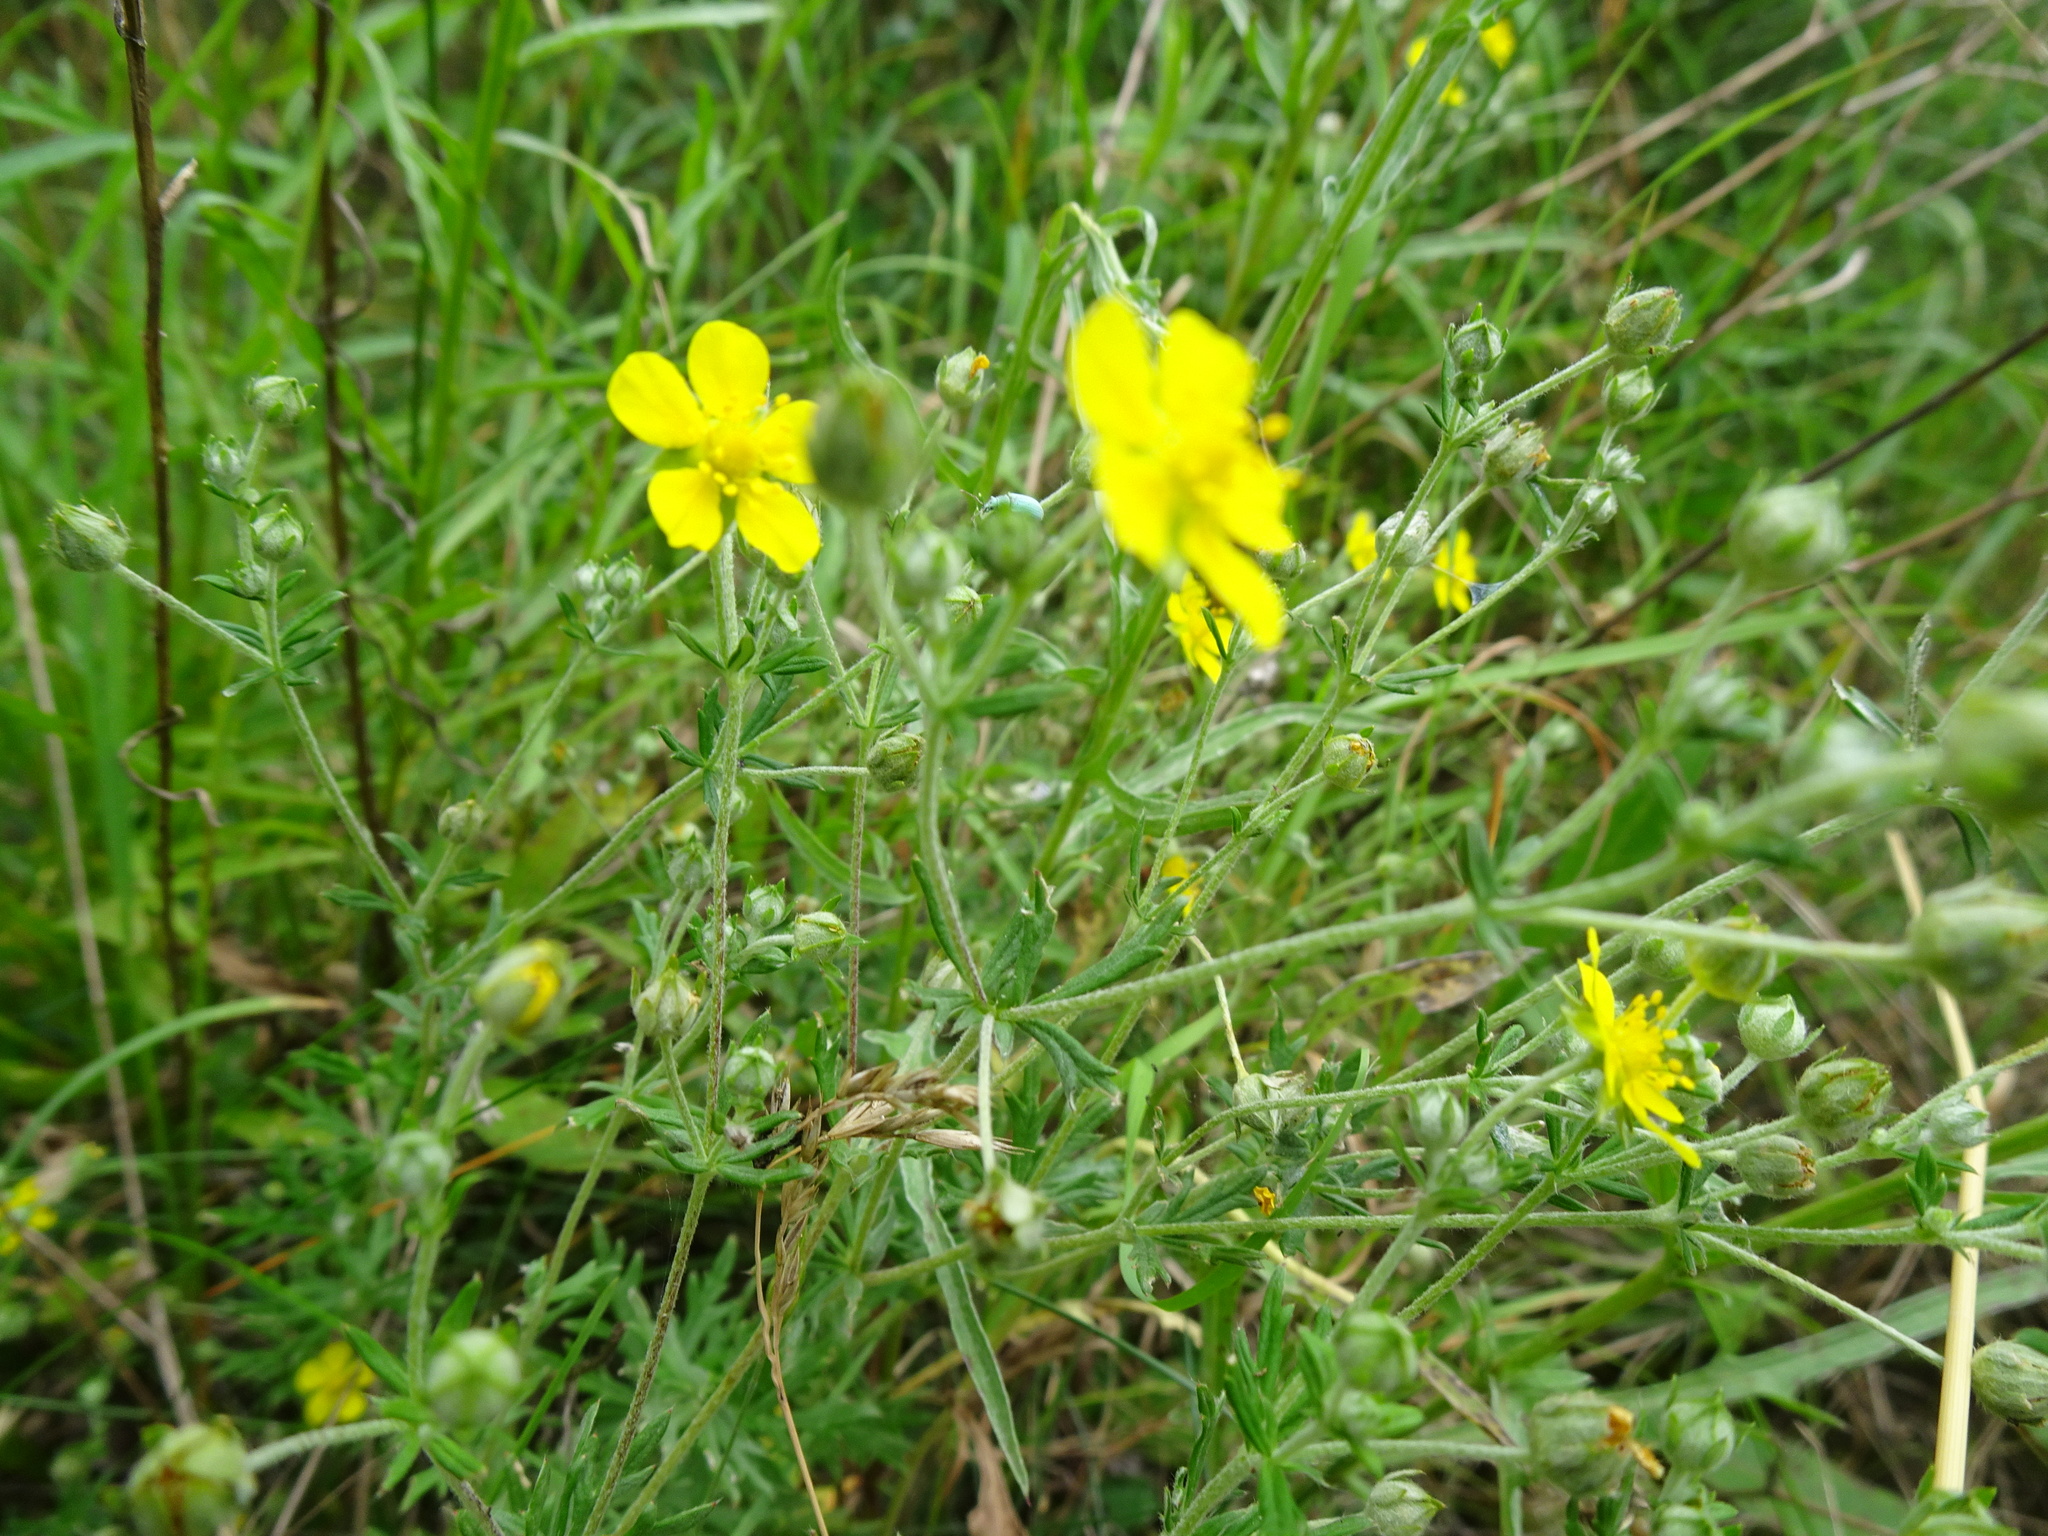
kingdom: Plantae
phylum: Tracheophyta
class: Magnoliopsida
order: Rosales
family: Rosaceae
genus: Argentina
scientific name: Argentina anserina
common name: Common silverweed
